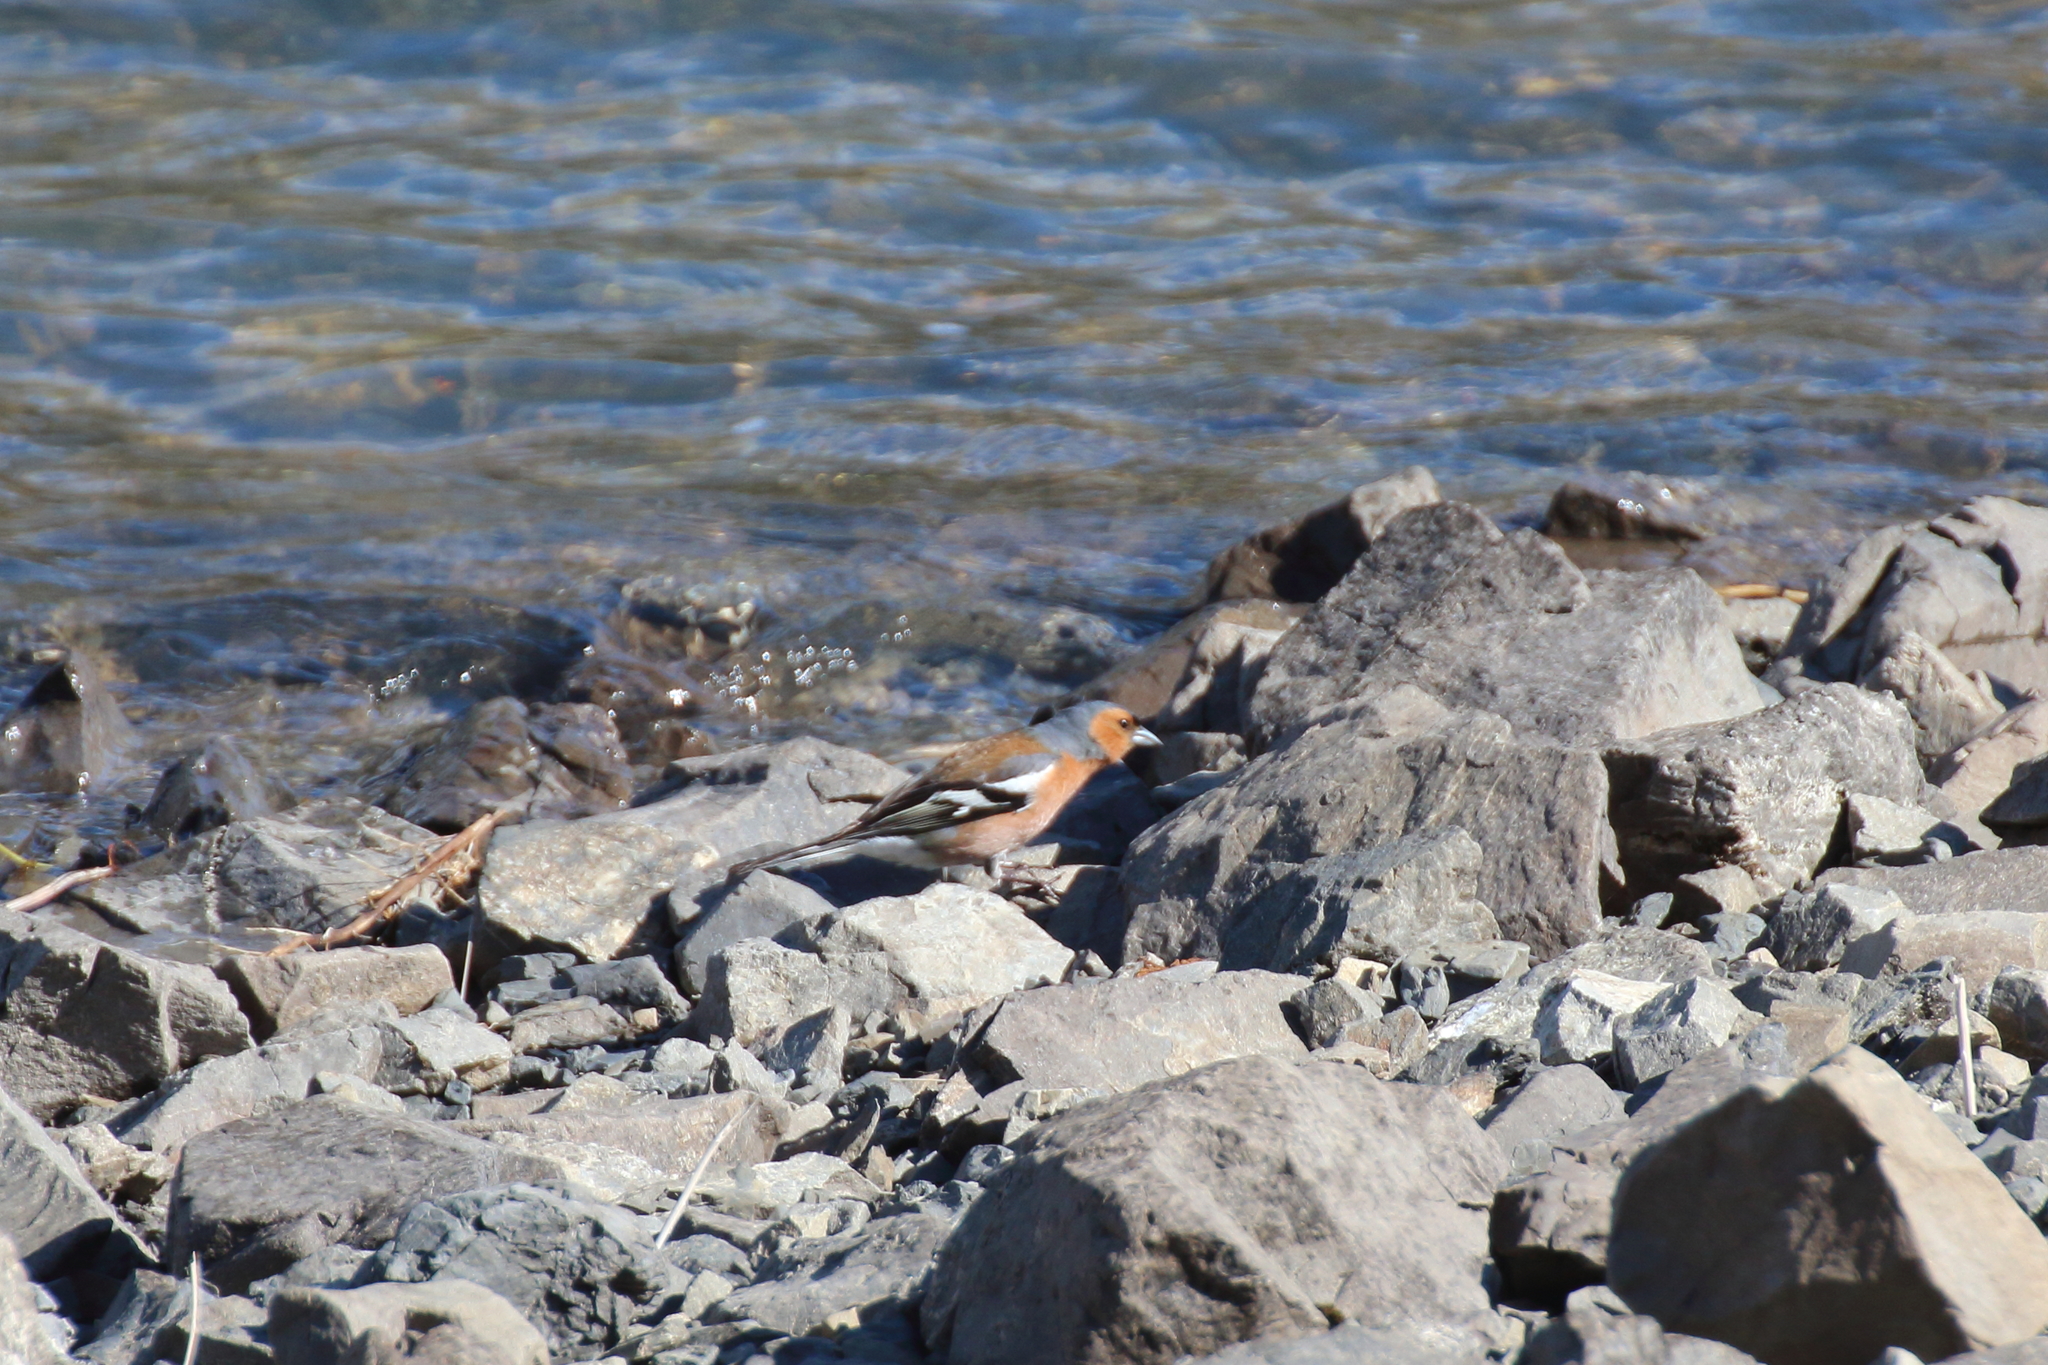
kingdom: Animalia
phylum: Chordata
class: Aves
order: Passeriformes
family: Fringillidae
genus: Fringilla
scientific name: Fringilla coelebs
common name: Common chaffinch
